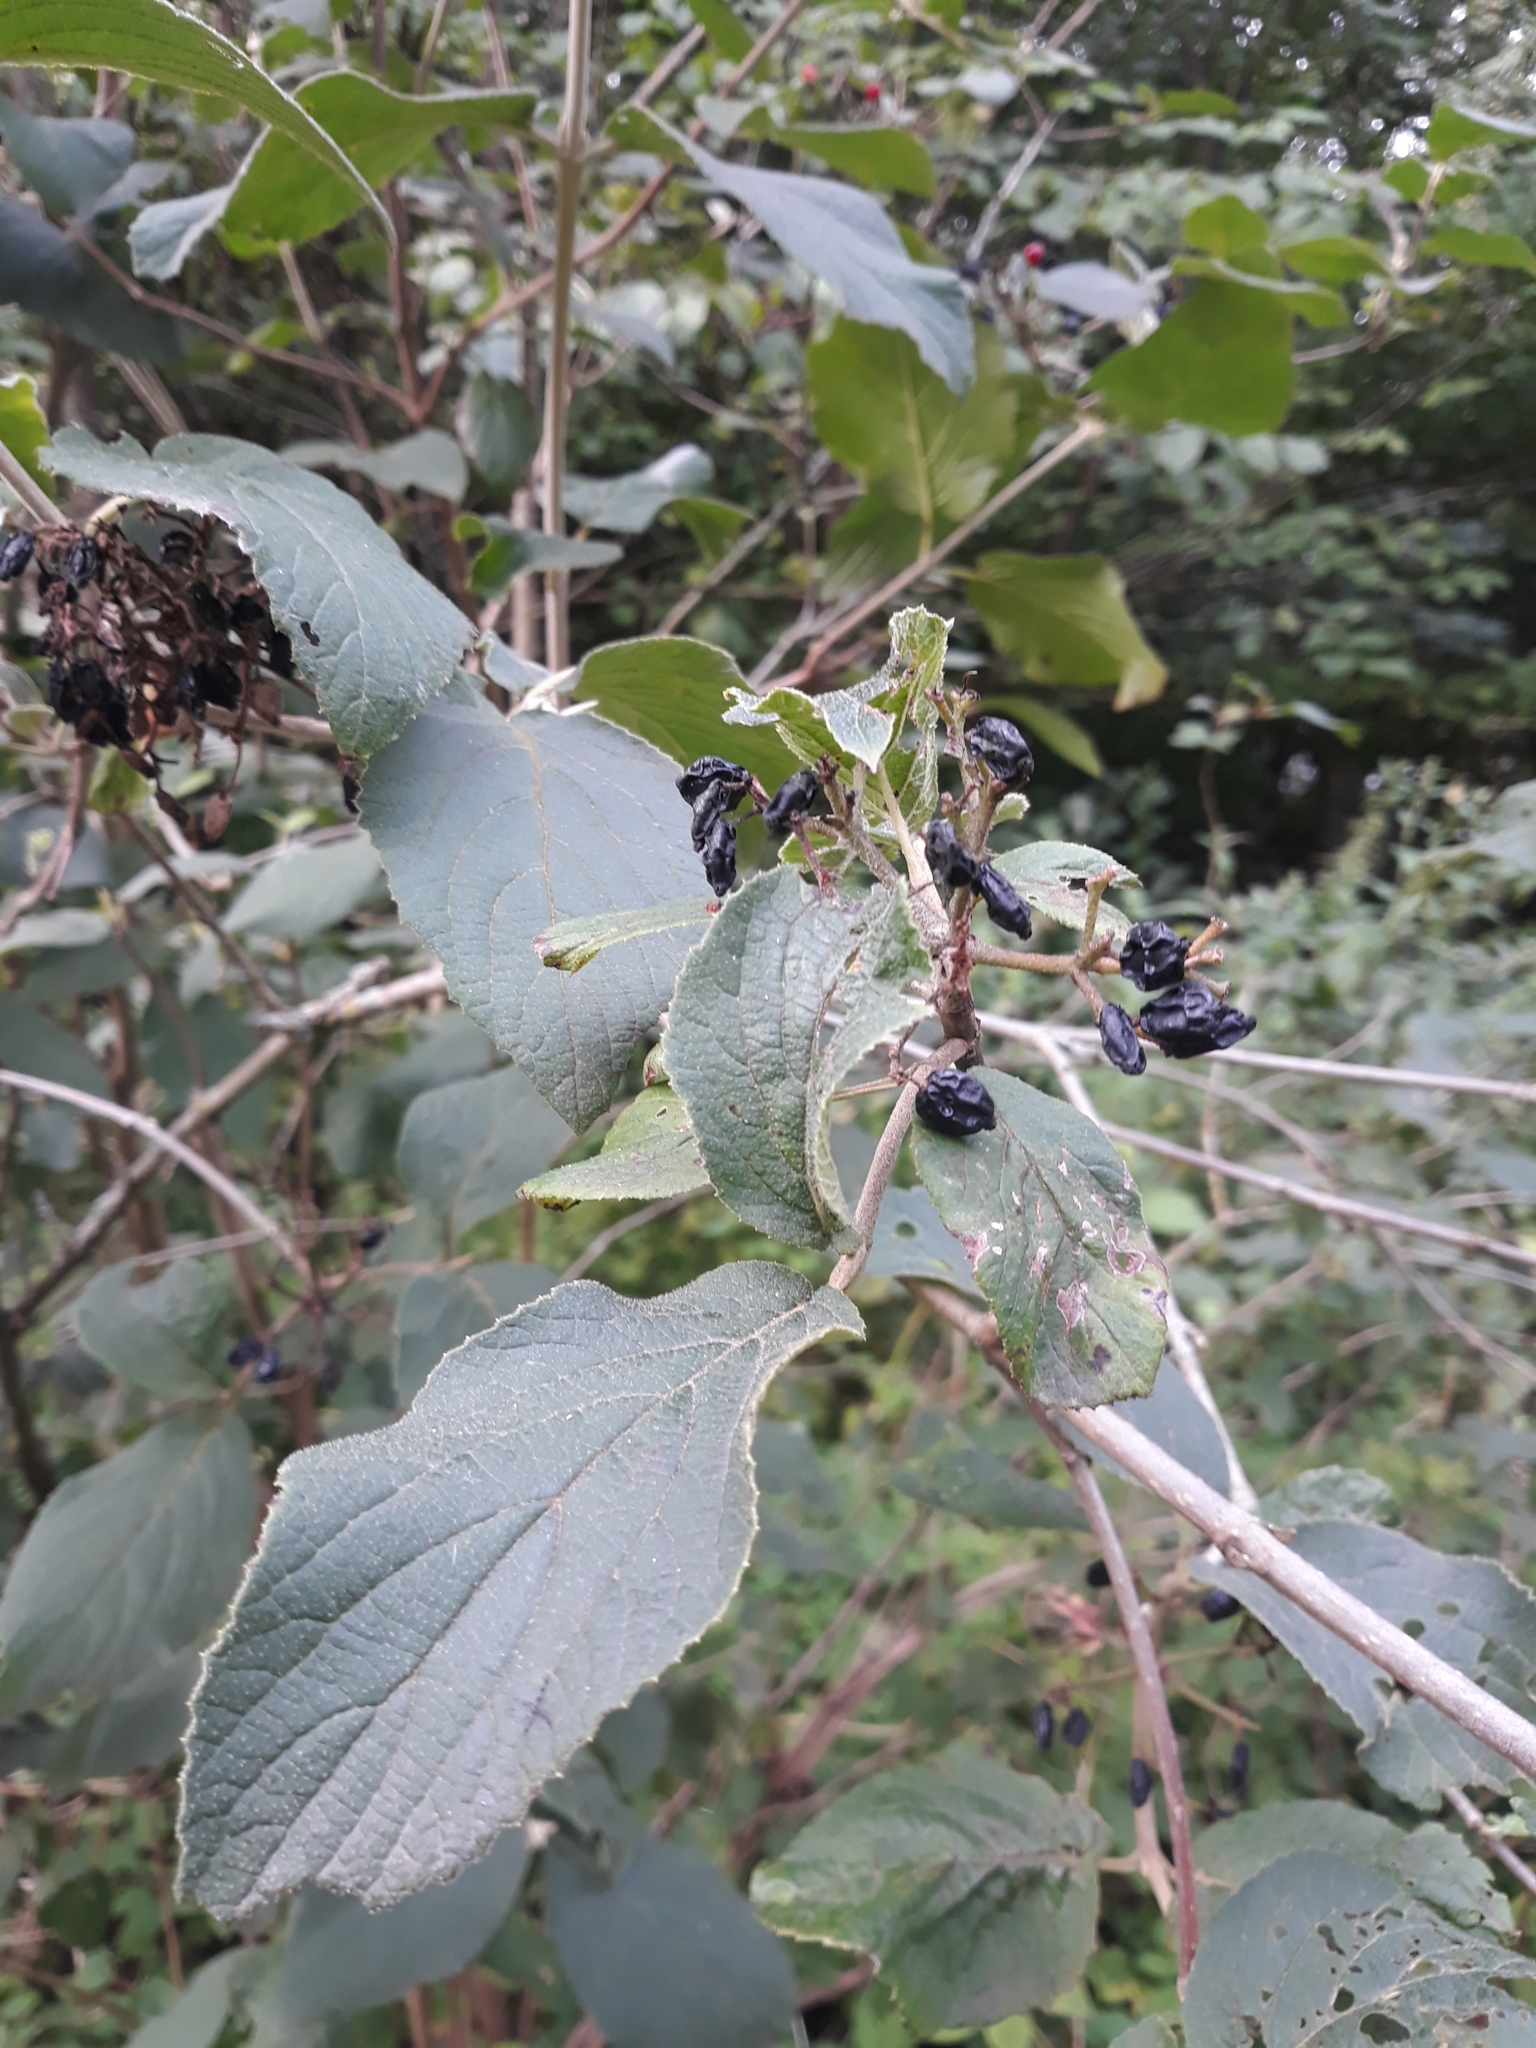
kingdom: Plantae
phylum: Tracheophyta
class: Magnoliopsida
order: Dipsacales
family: Viburnaceae
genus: Viburnum
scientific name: Viburnum lantana
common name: Wayfaring tree
